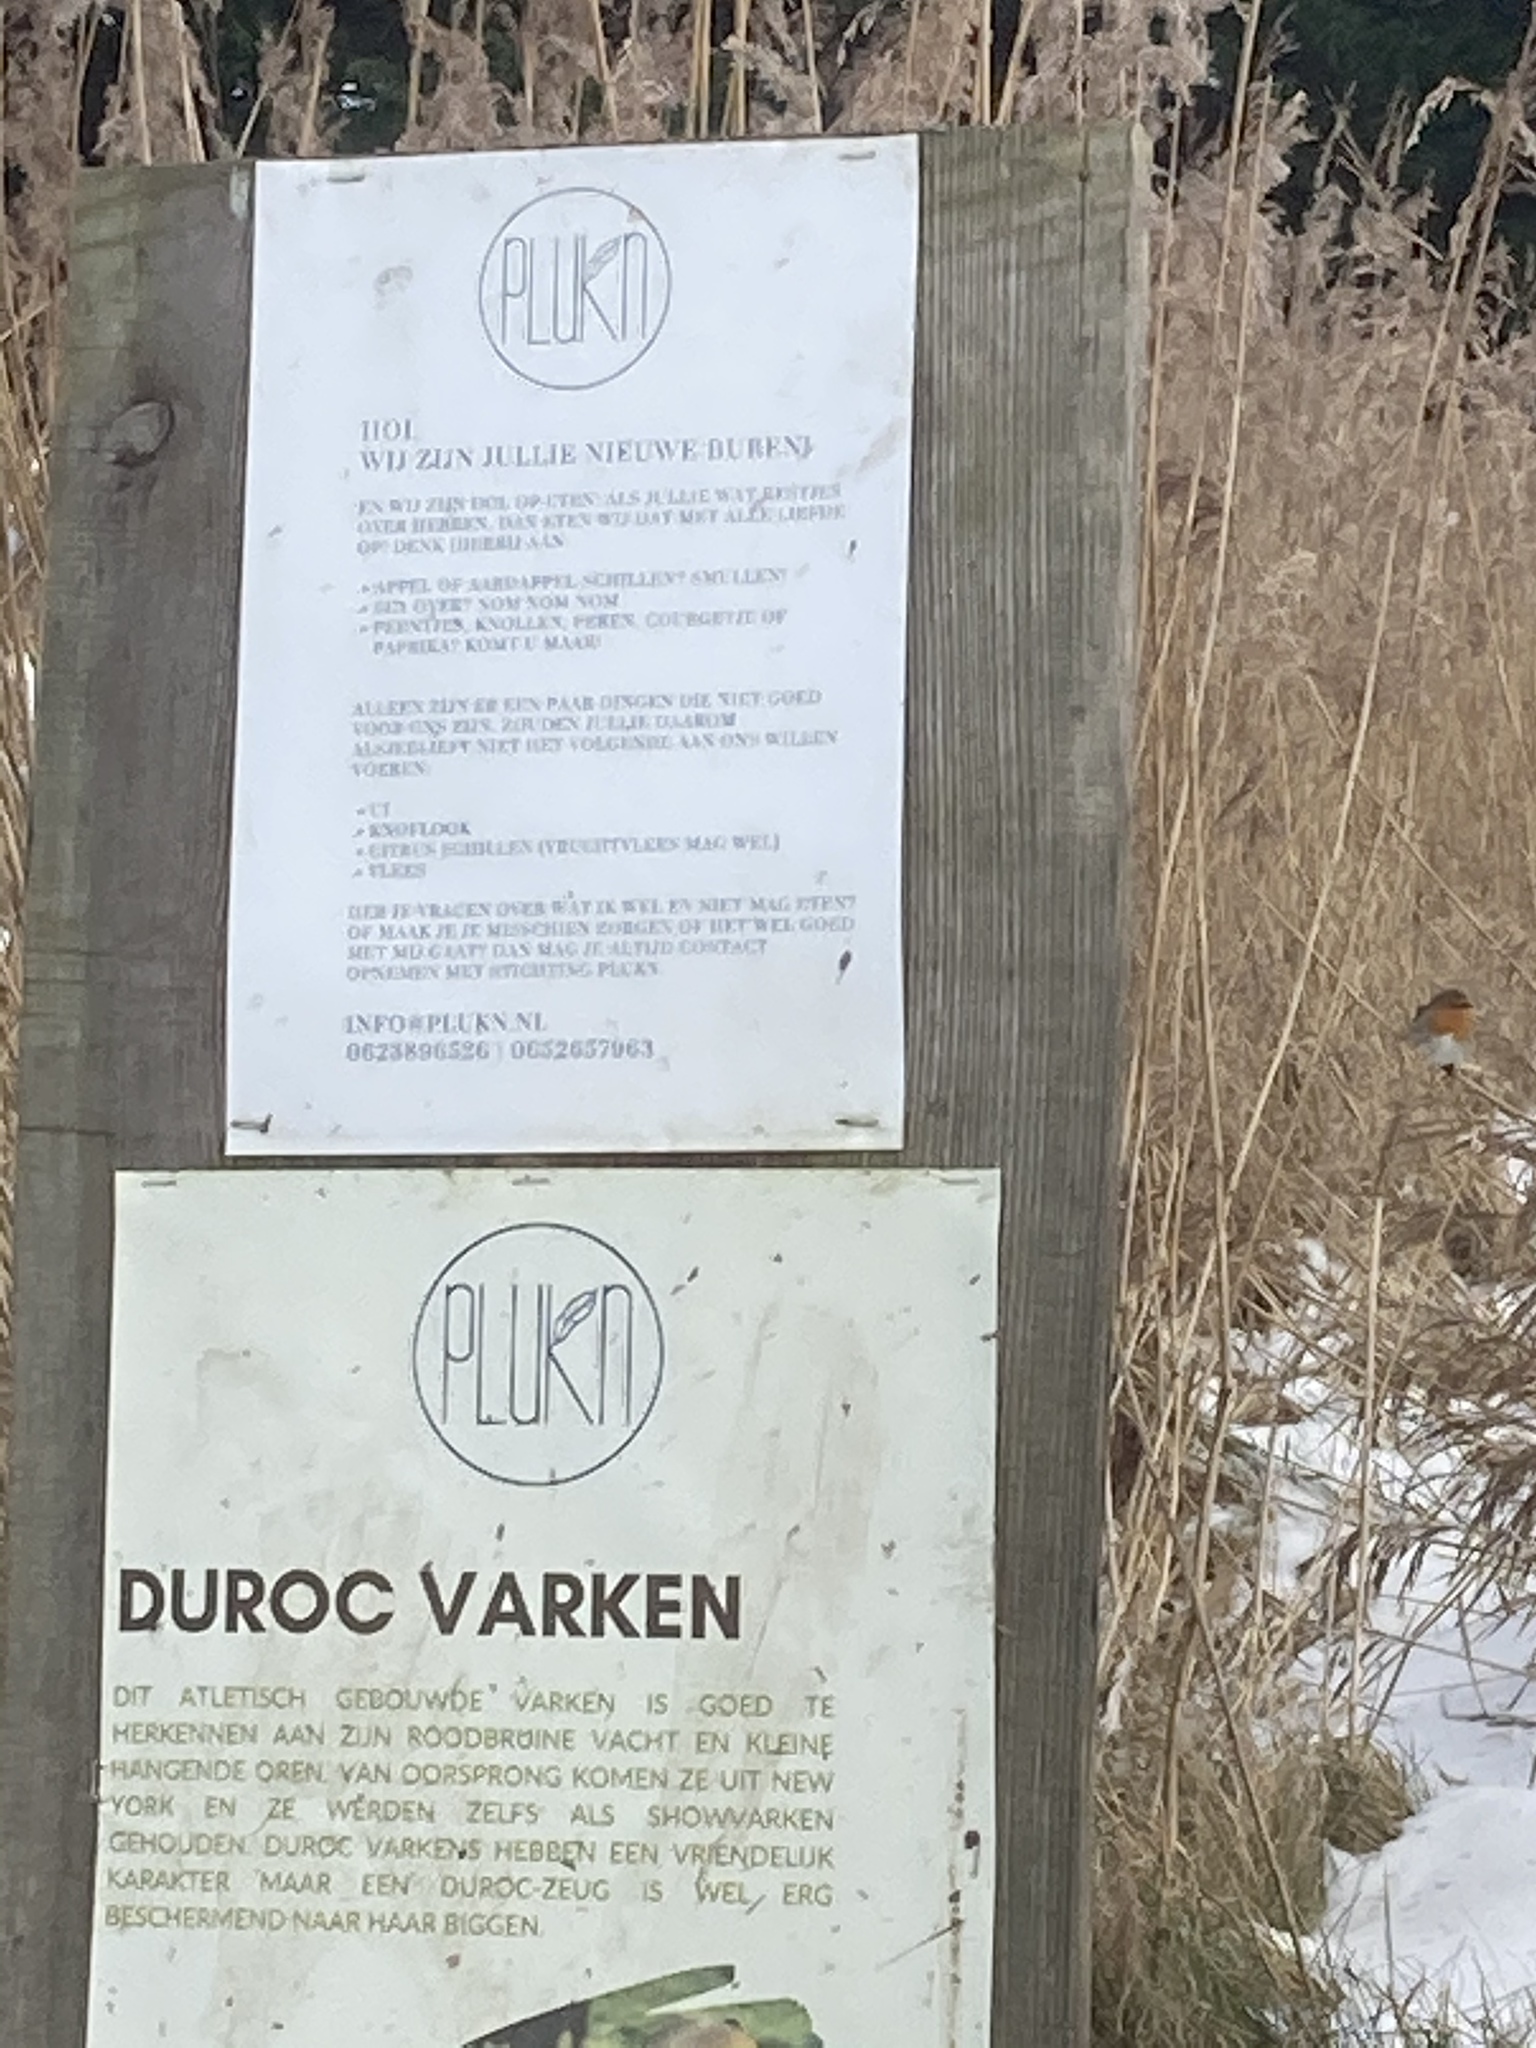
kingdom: Animalia
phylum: Chordata
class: Aves
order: Passeriformes
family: Muscicapidae
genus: Erithacus
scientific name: Erithacus rubecula
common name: European robin
